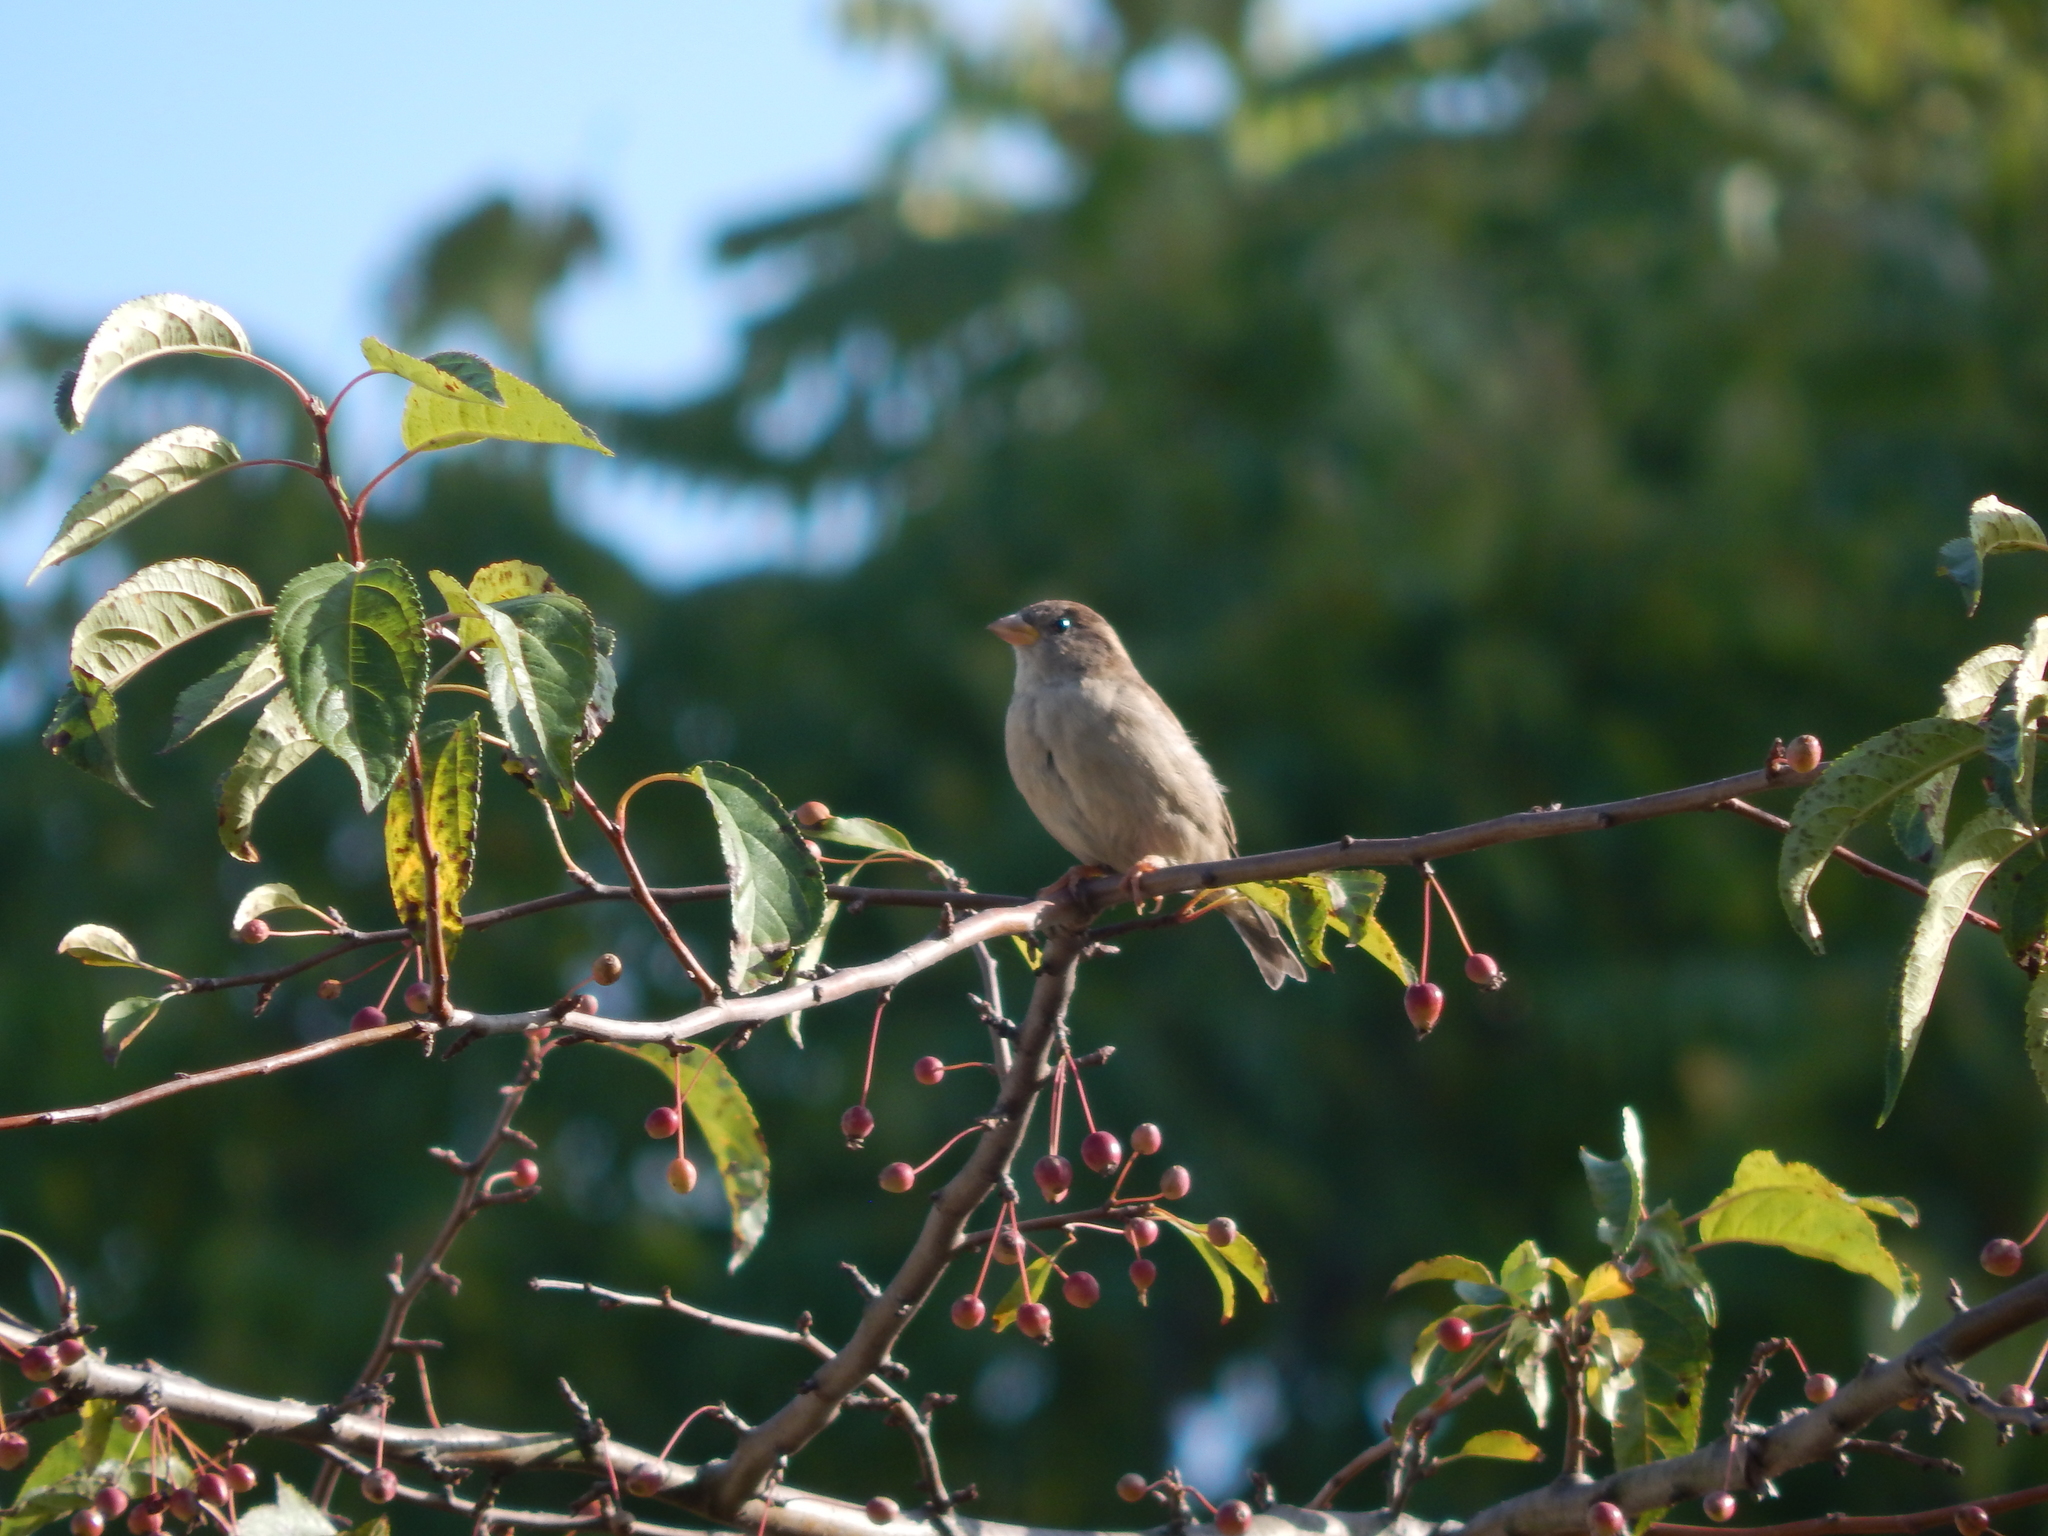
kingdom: Animalia
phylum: Chordata
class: Aves
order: Passeriformes
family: Passeridae
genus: Passer
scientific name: Passer domesticus
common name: House sparrow
